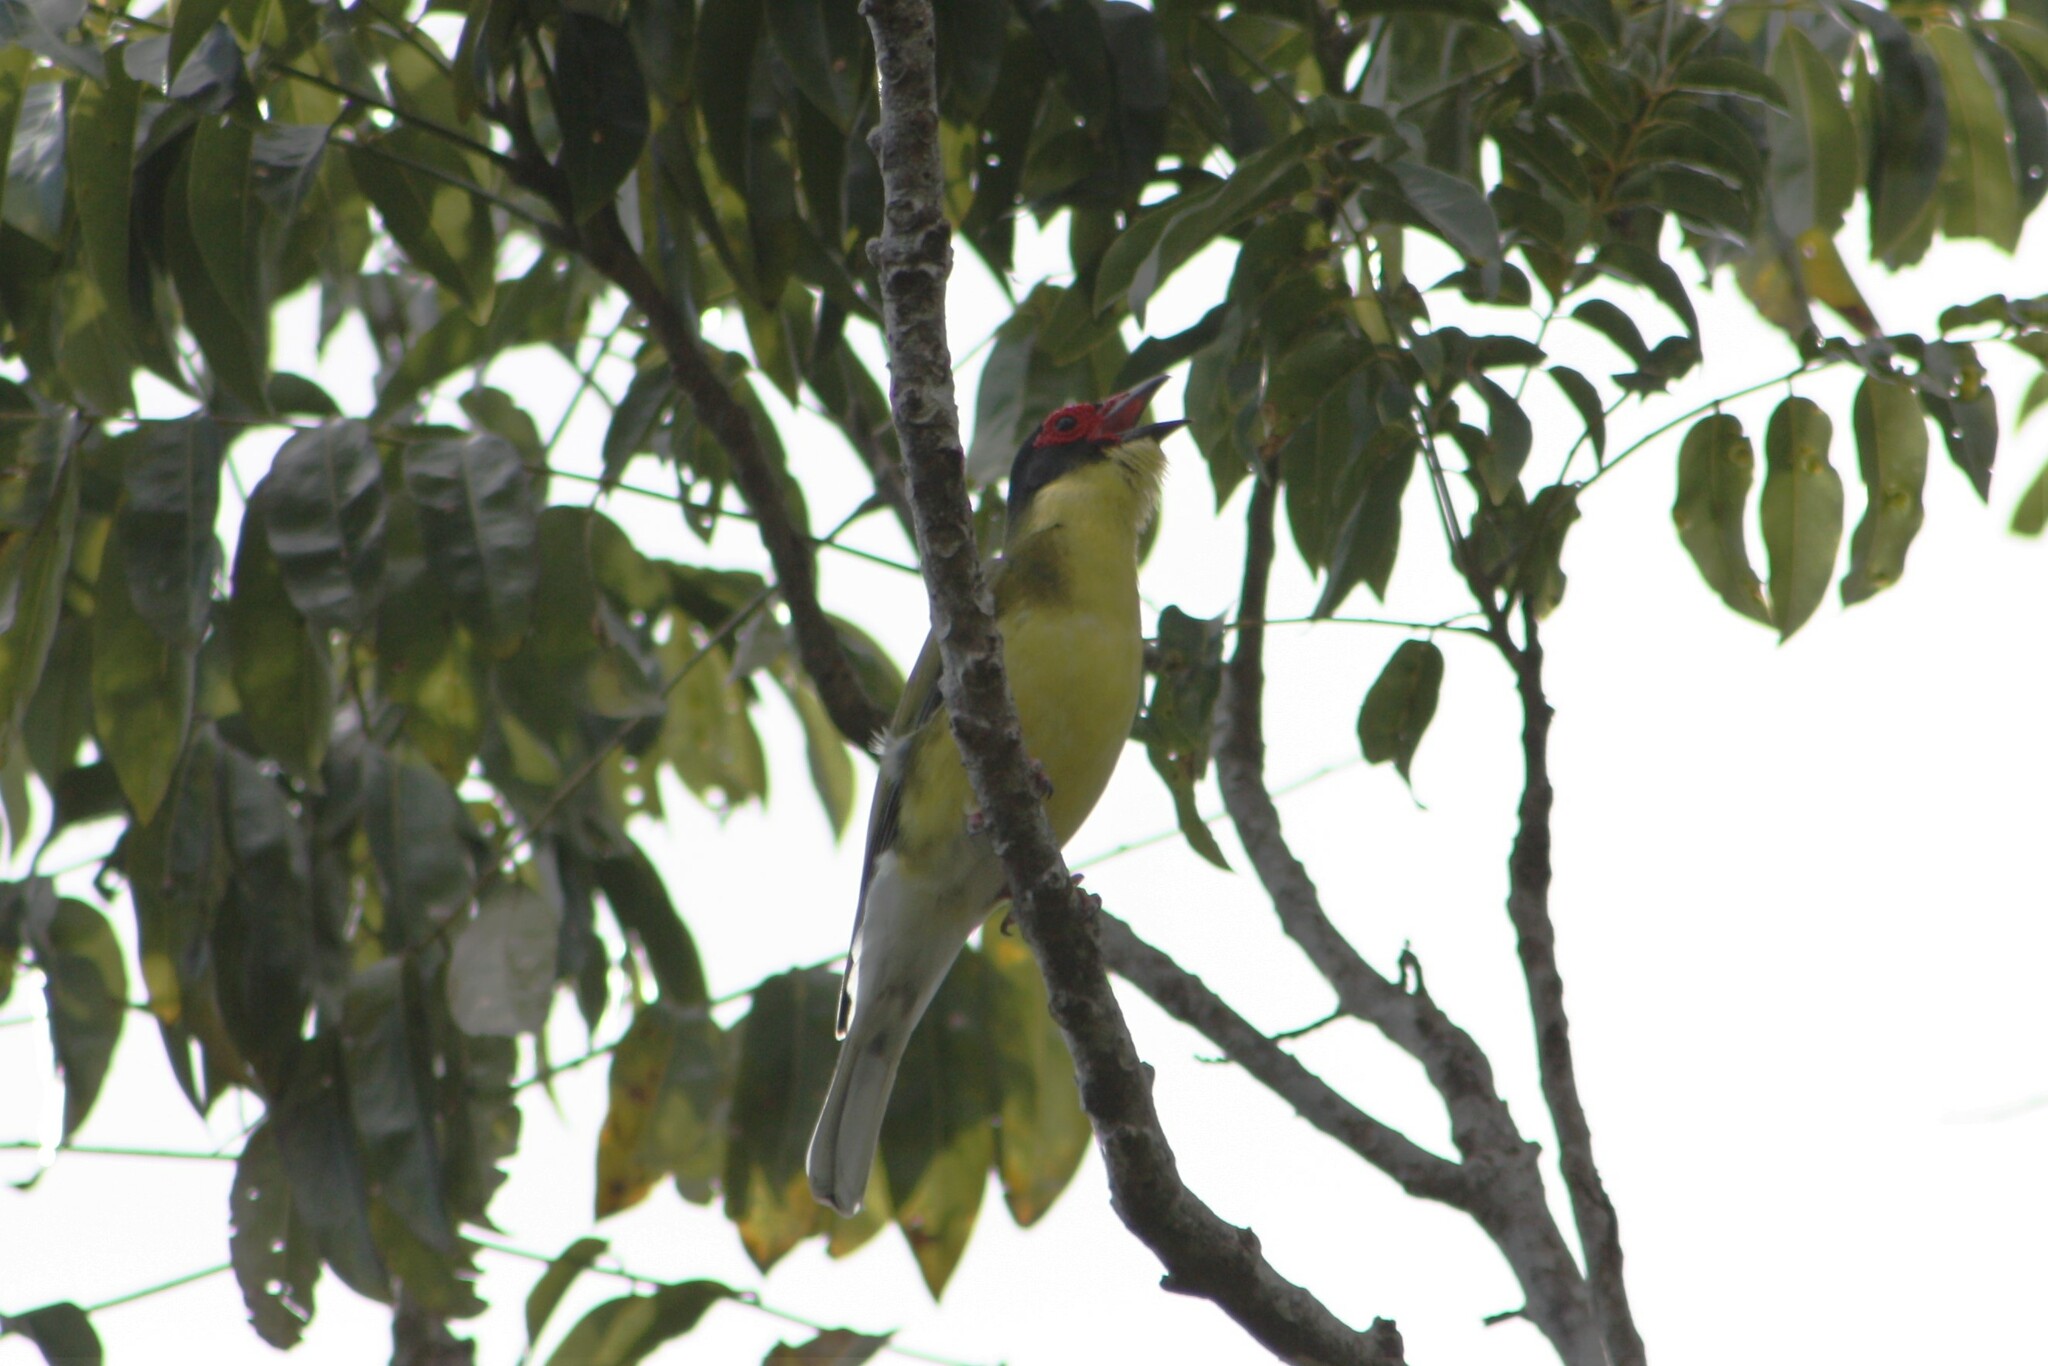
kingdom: Animalia
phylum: Chordata
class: Aves
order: Passeriformes
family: Oriolidae
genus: Sphecotheres
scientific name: Sphecotheres vieilloti
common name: Australasian figbird
